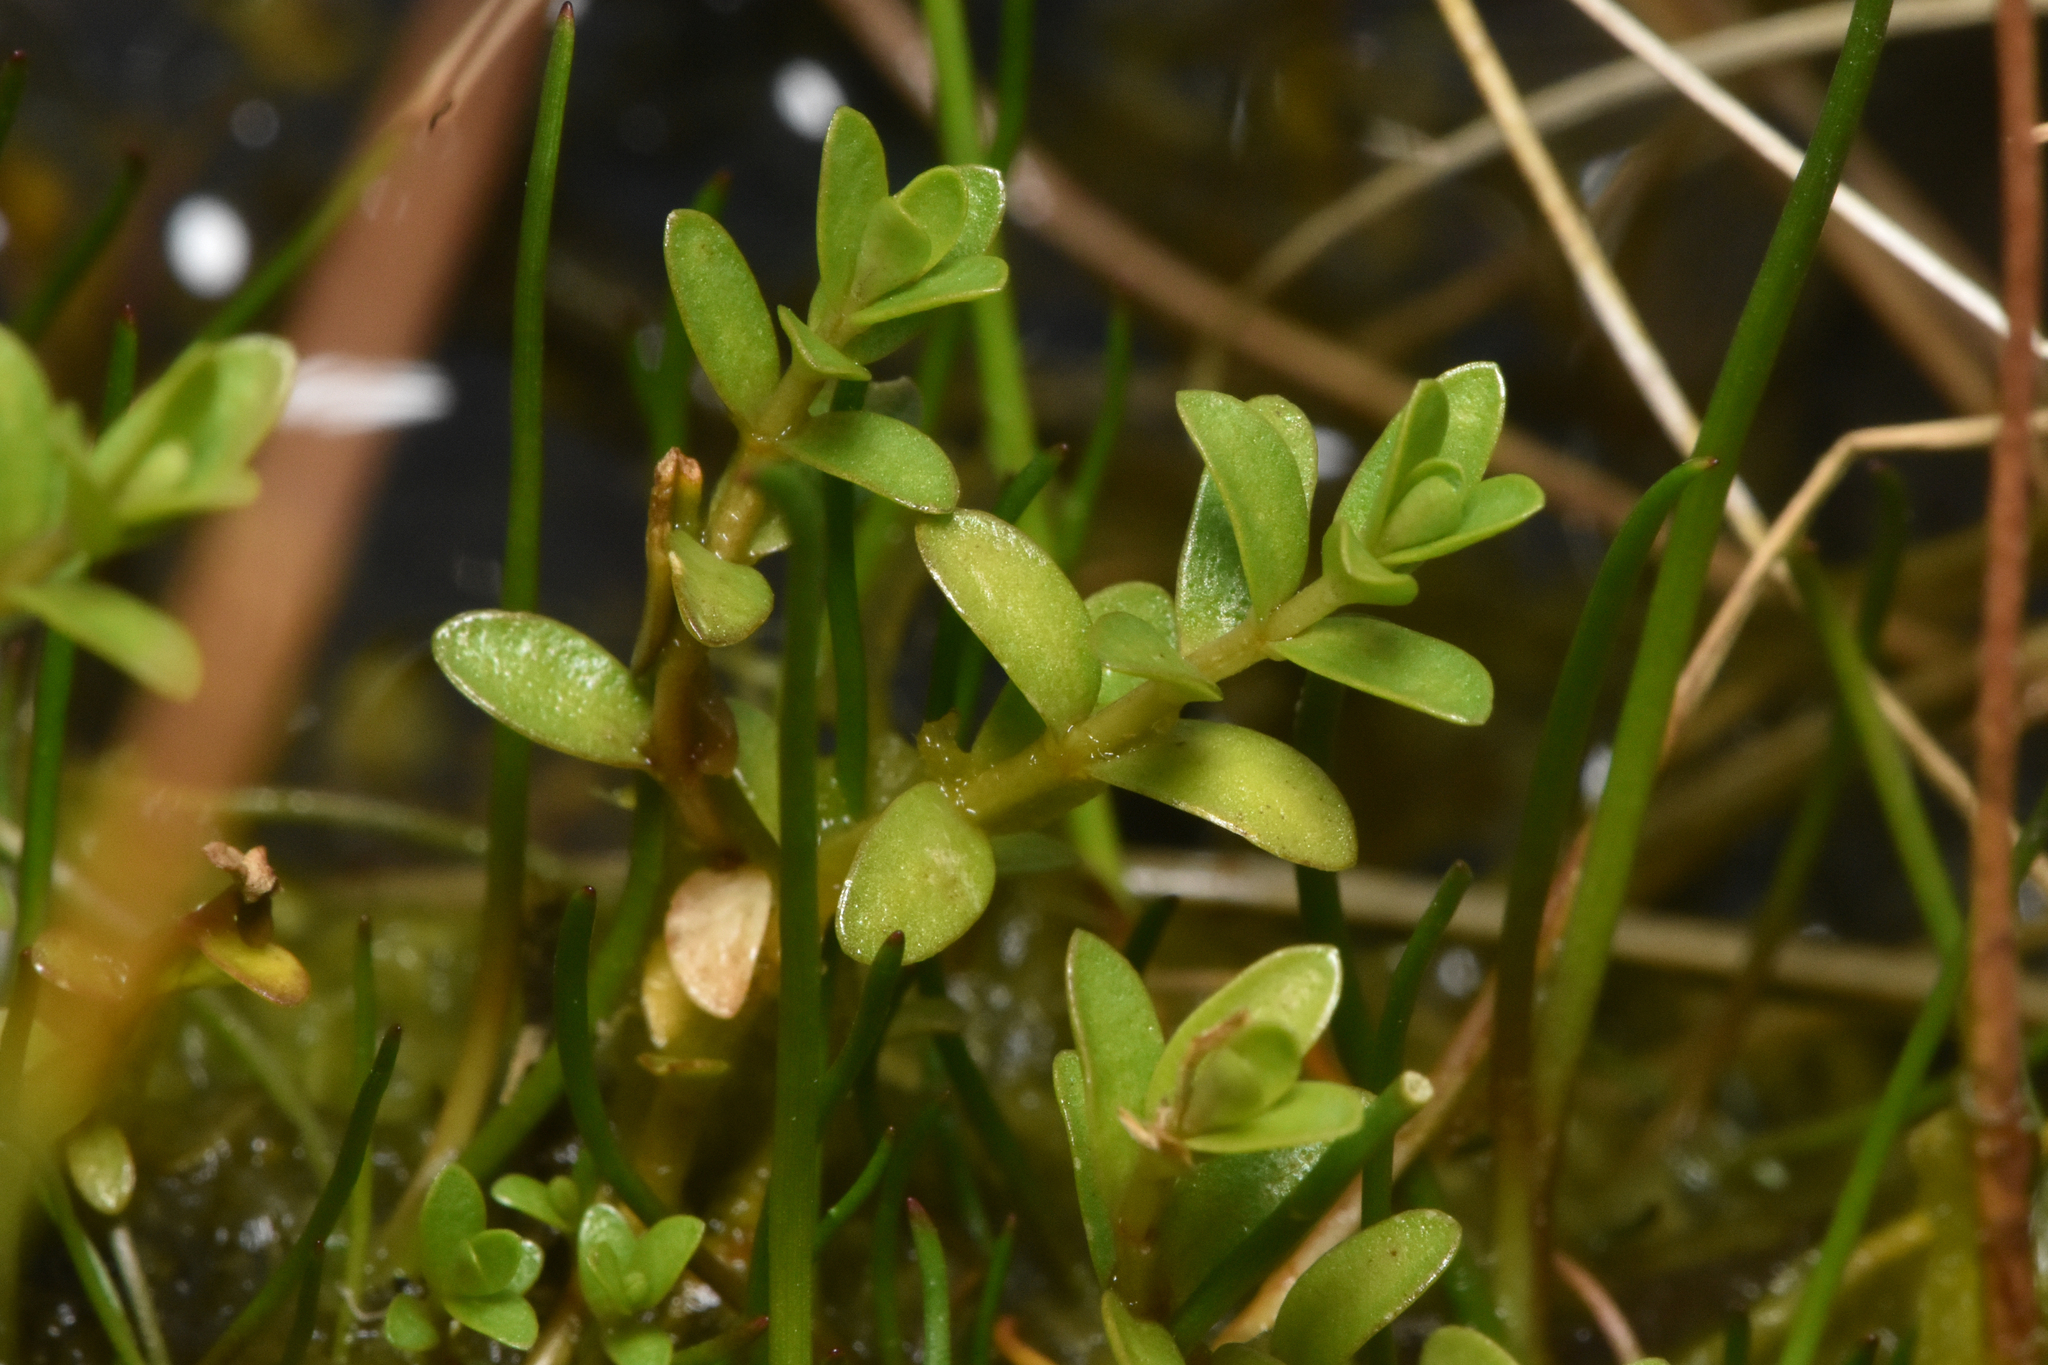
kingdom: Plantae
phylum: Tracheophyta
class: Magnoliopsida
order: Ericales
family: Primulaceae
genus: Lysimachia
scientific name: Lysimachia maritima
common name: Sea milkwort
